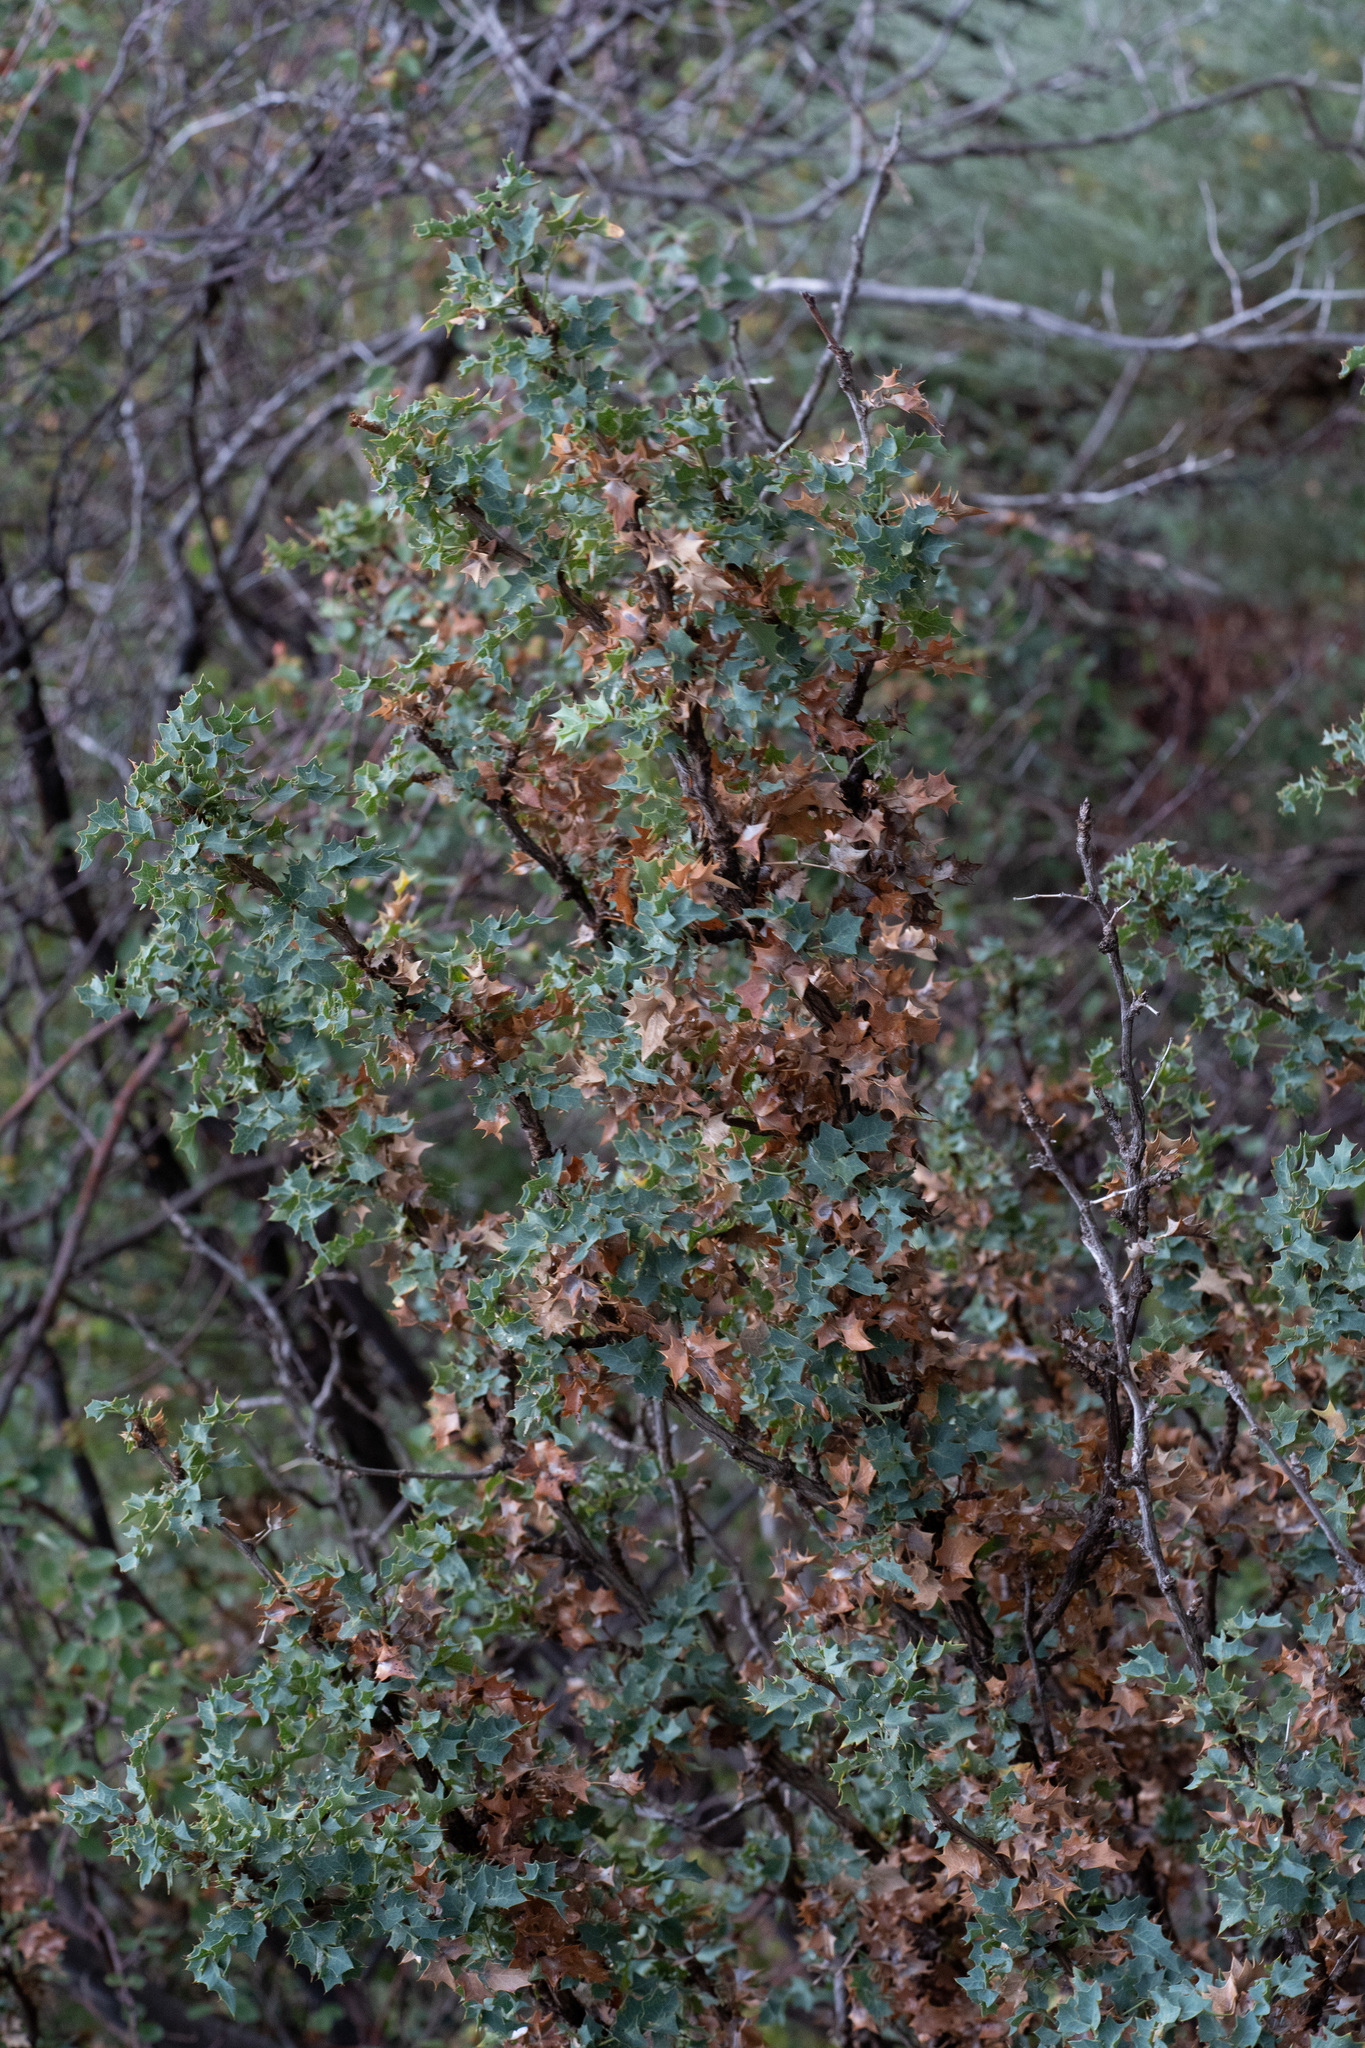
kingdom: Plantae
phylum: Tracheophyta
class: Magnoliopsida
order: Ranunculales
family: Berberidaceae
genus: Alloberberis
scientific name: Alloberberis fremontii
